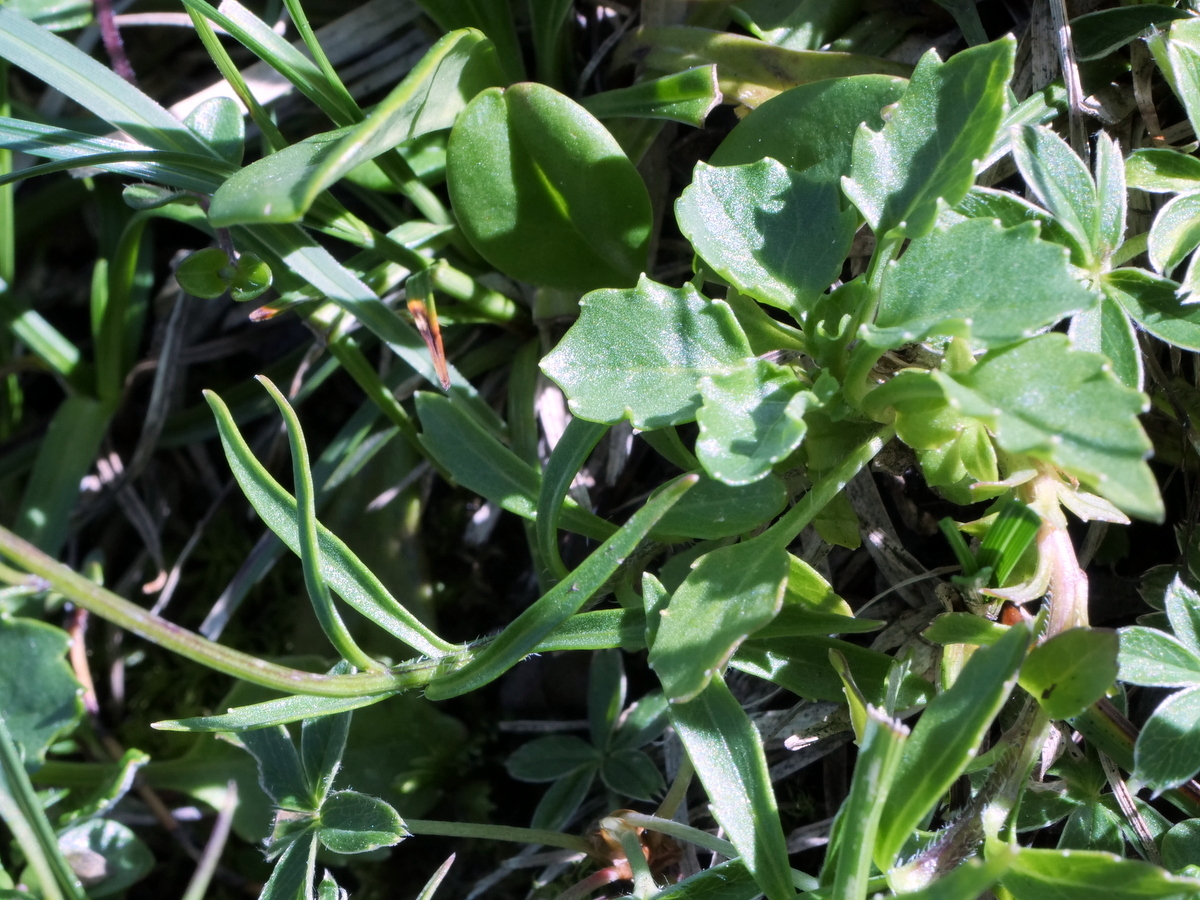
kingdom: Plantae
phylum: Tracheophyta
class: Magnoliopsida
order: Asterales
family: Campanulaceae
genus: Campanula
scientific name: Campanula cochleariifolia
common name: Fairies'-thimbles
